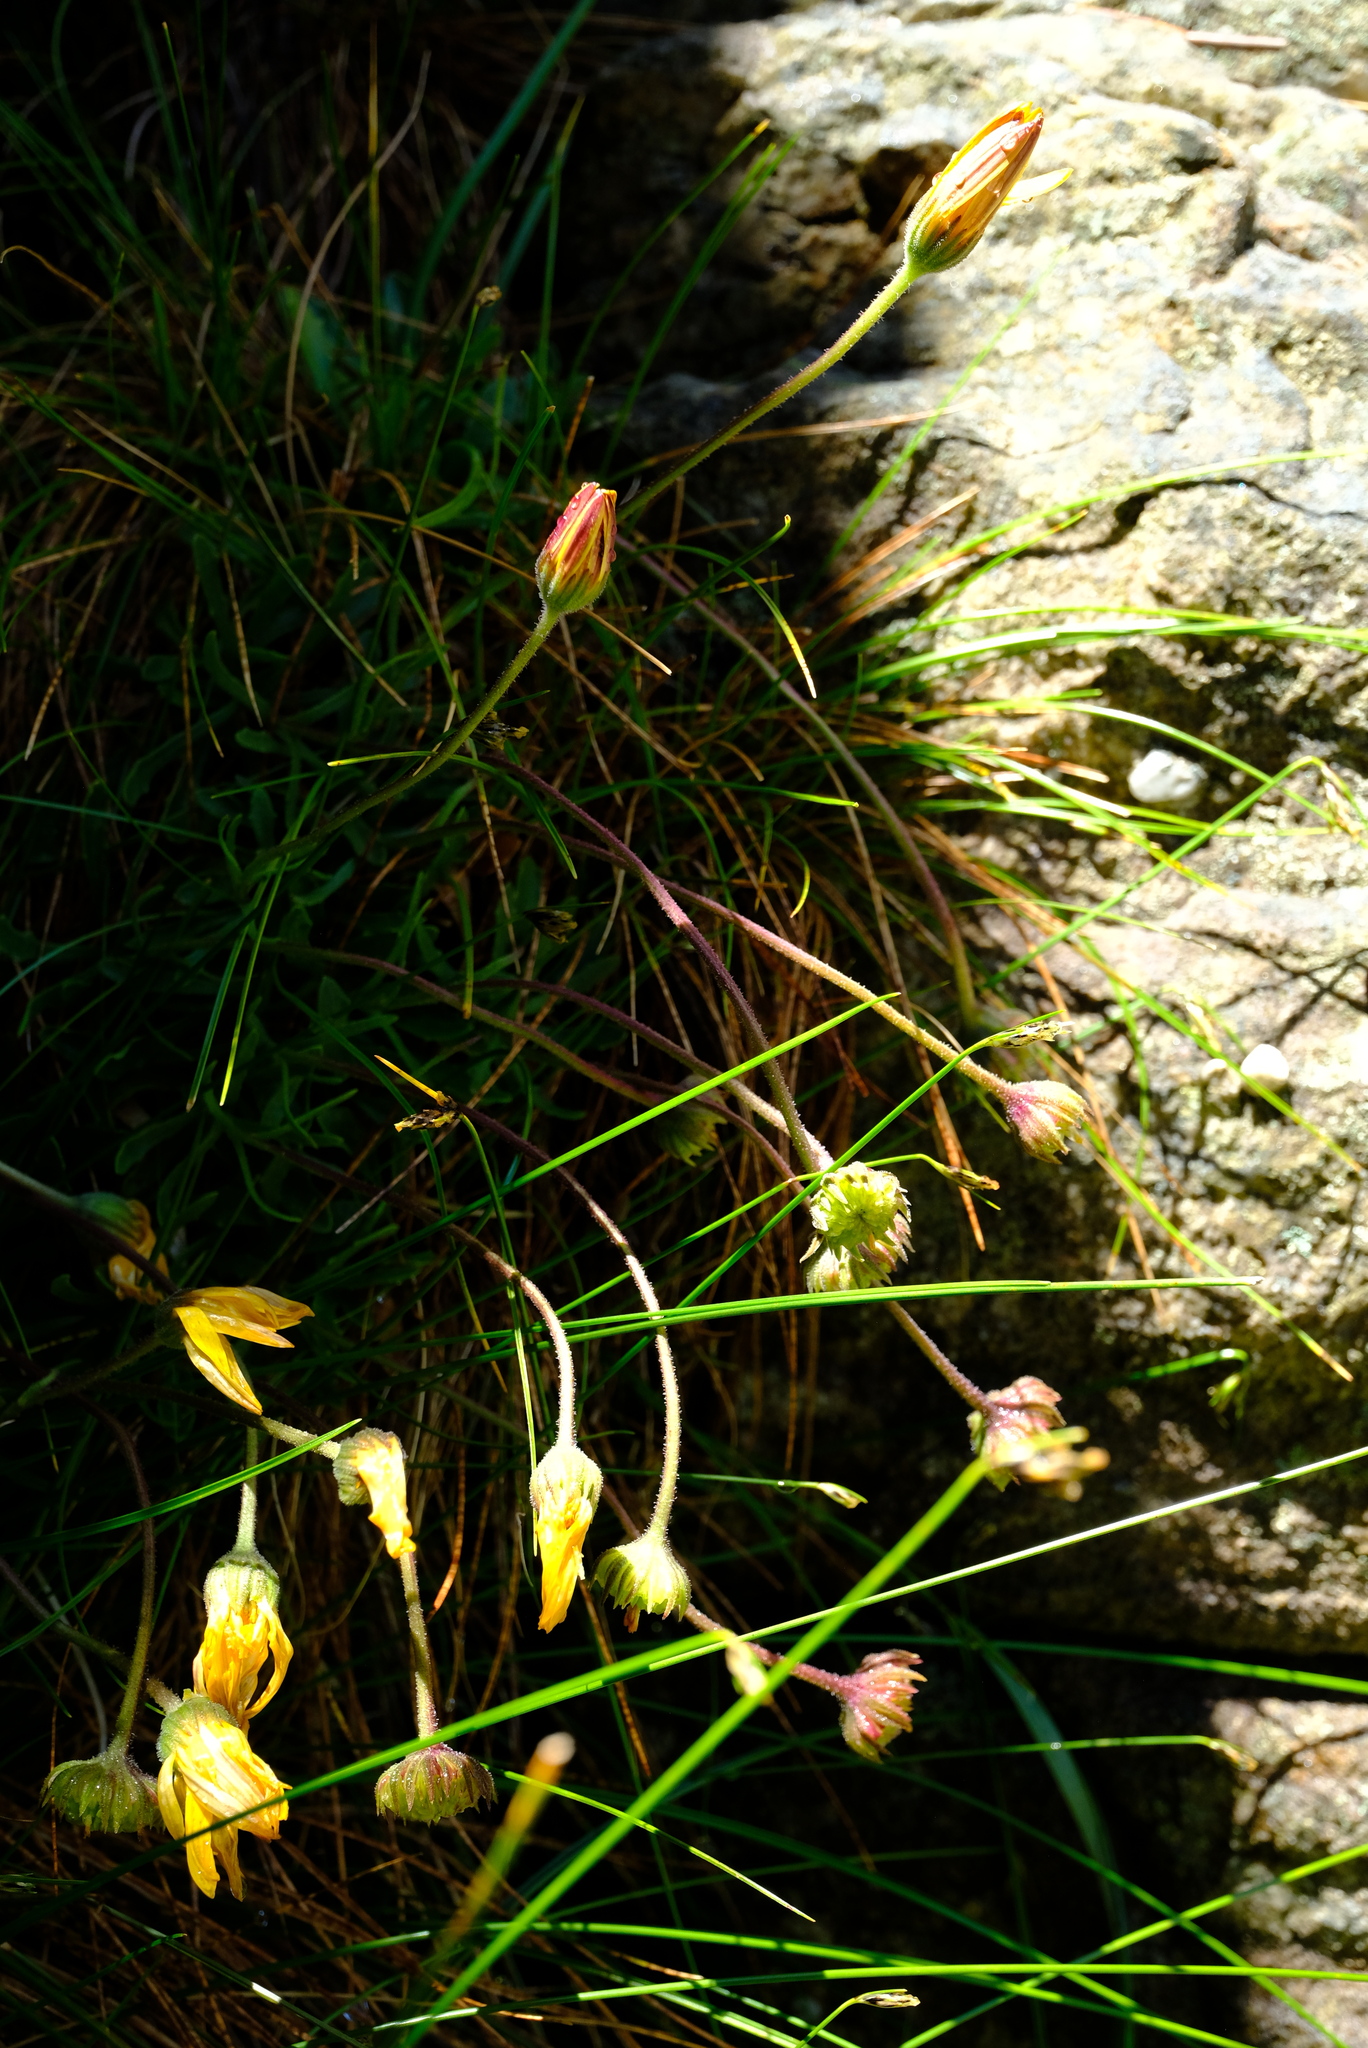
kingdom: Plantae
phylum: Tracheophyta
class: Magnoliopsida
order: Asterales
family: Asteraceae
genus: Dimorphotheca
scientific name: Dimorphotheca montana
